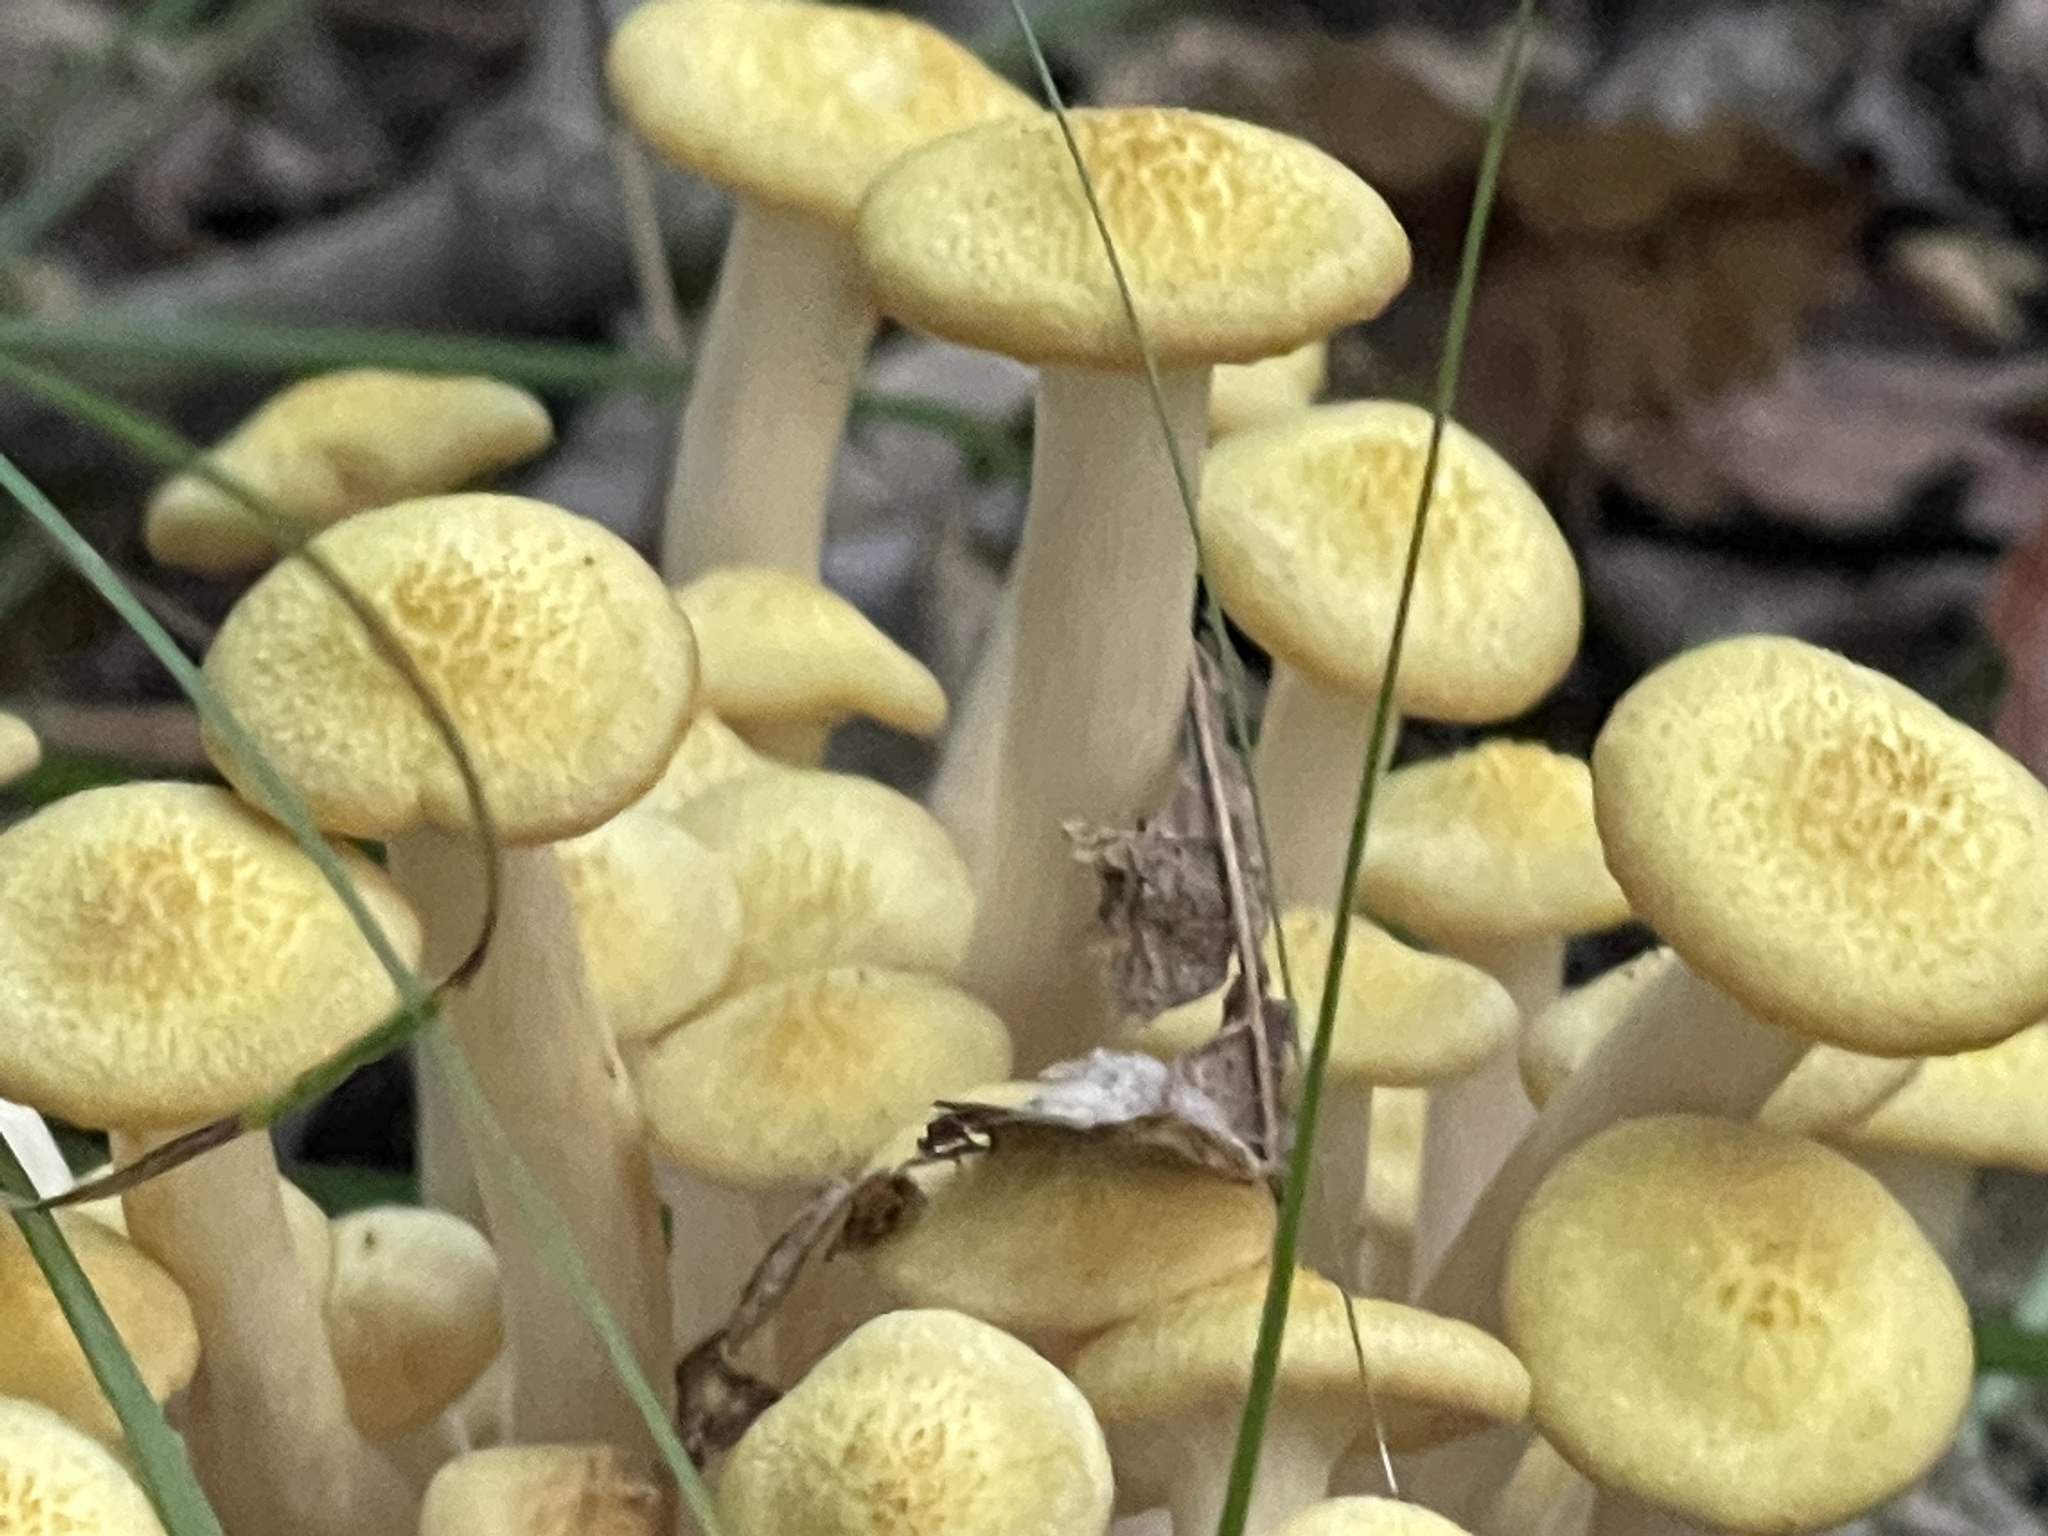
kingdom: Fungi
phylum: Basidiomycota
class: Agaricomycetes
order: Agaricales
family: Physalacriaceae
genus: Desarmillaria
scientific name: Desarmillaria caespitosa
